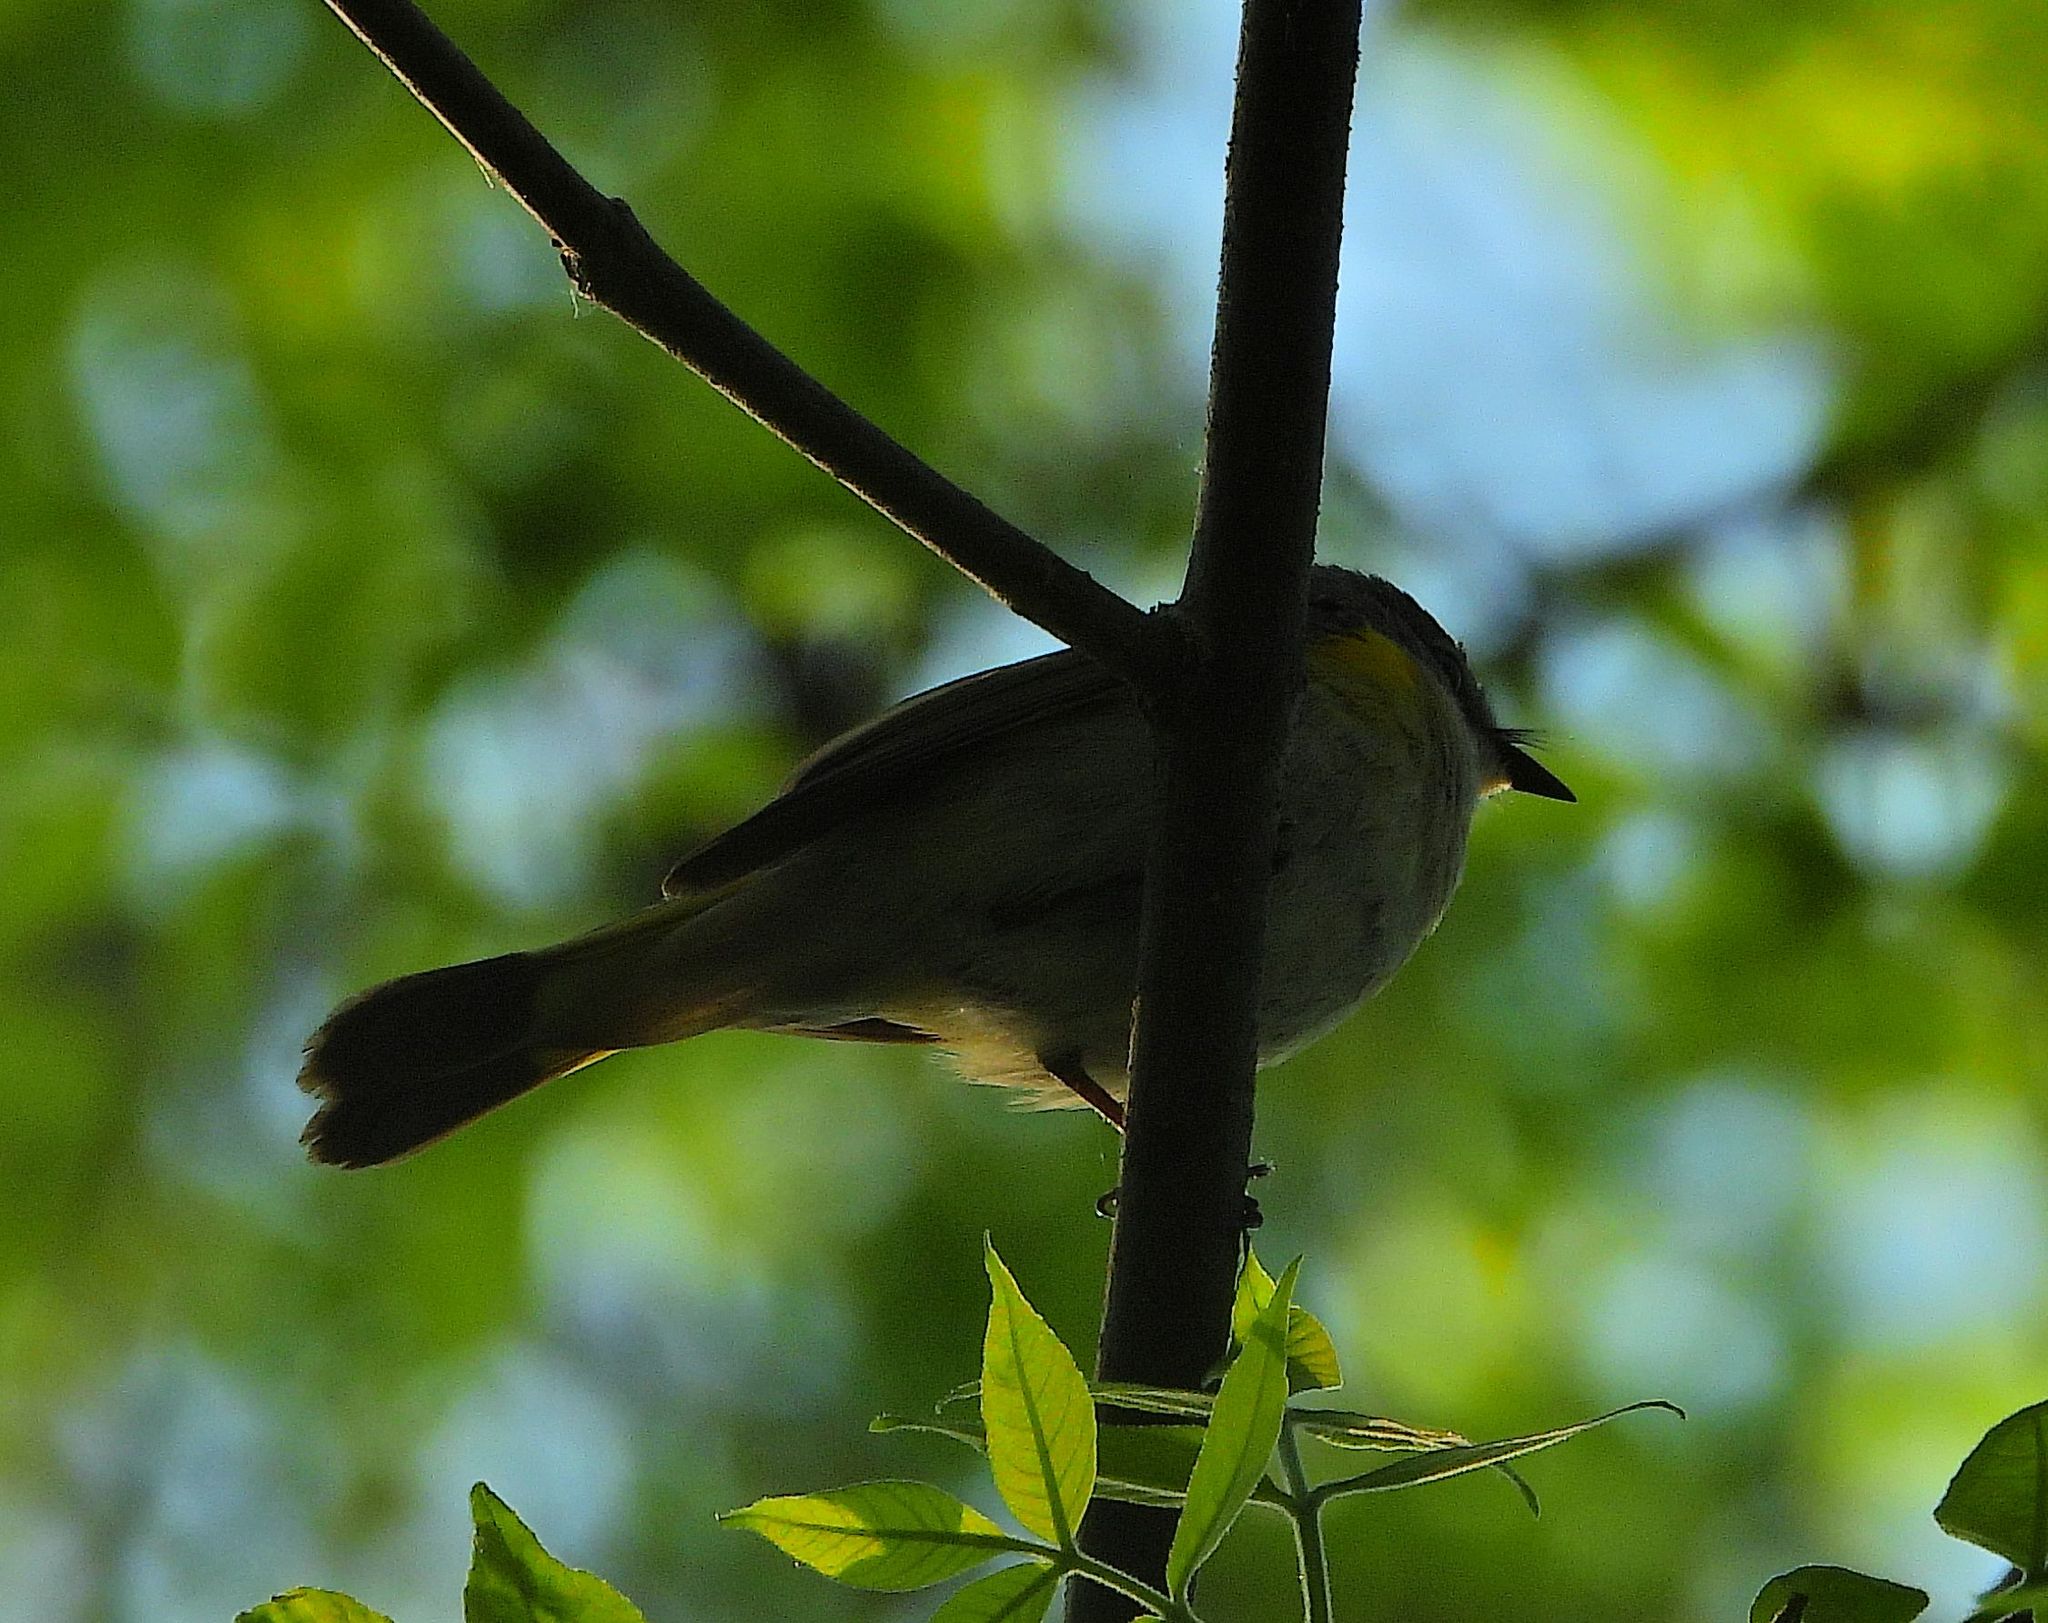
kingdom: Animalia
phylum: Chordata
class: Aves
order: Passeriformes
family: Parulidae
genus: Setophaga
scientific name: Setophaga ruticilla
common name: American redstart
